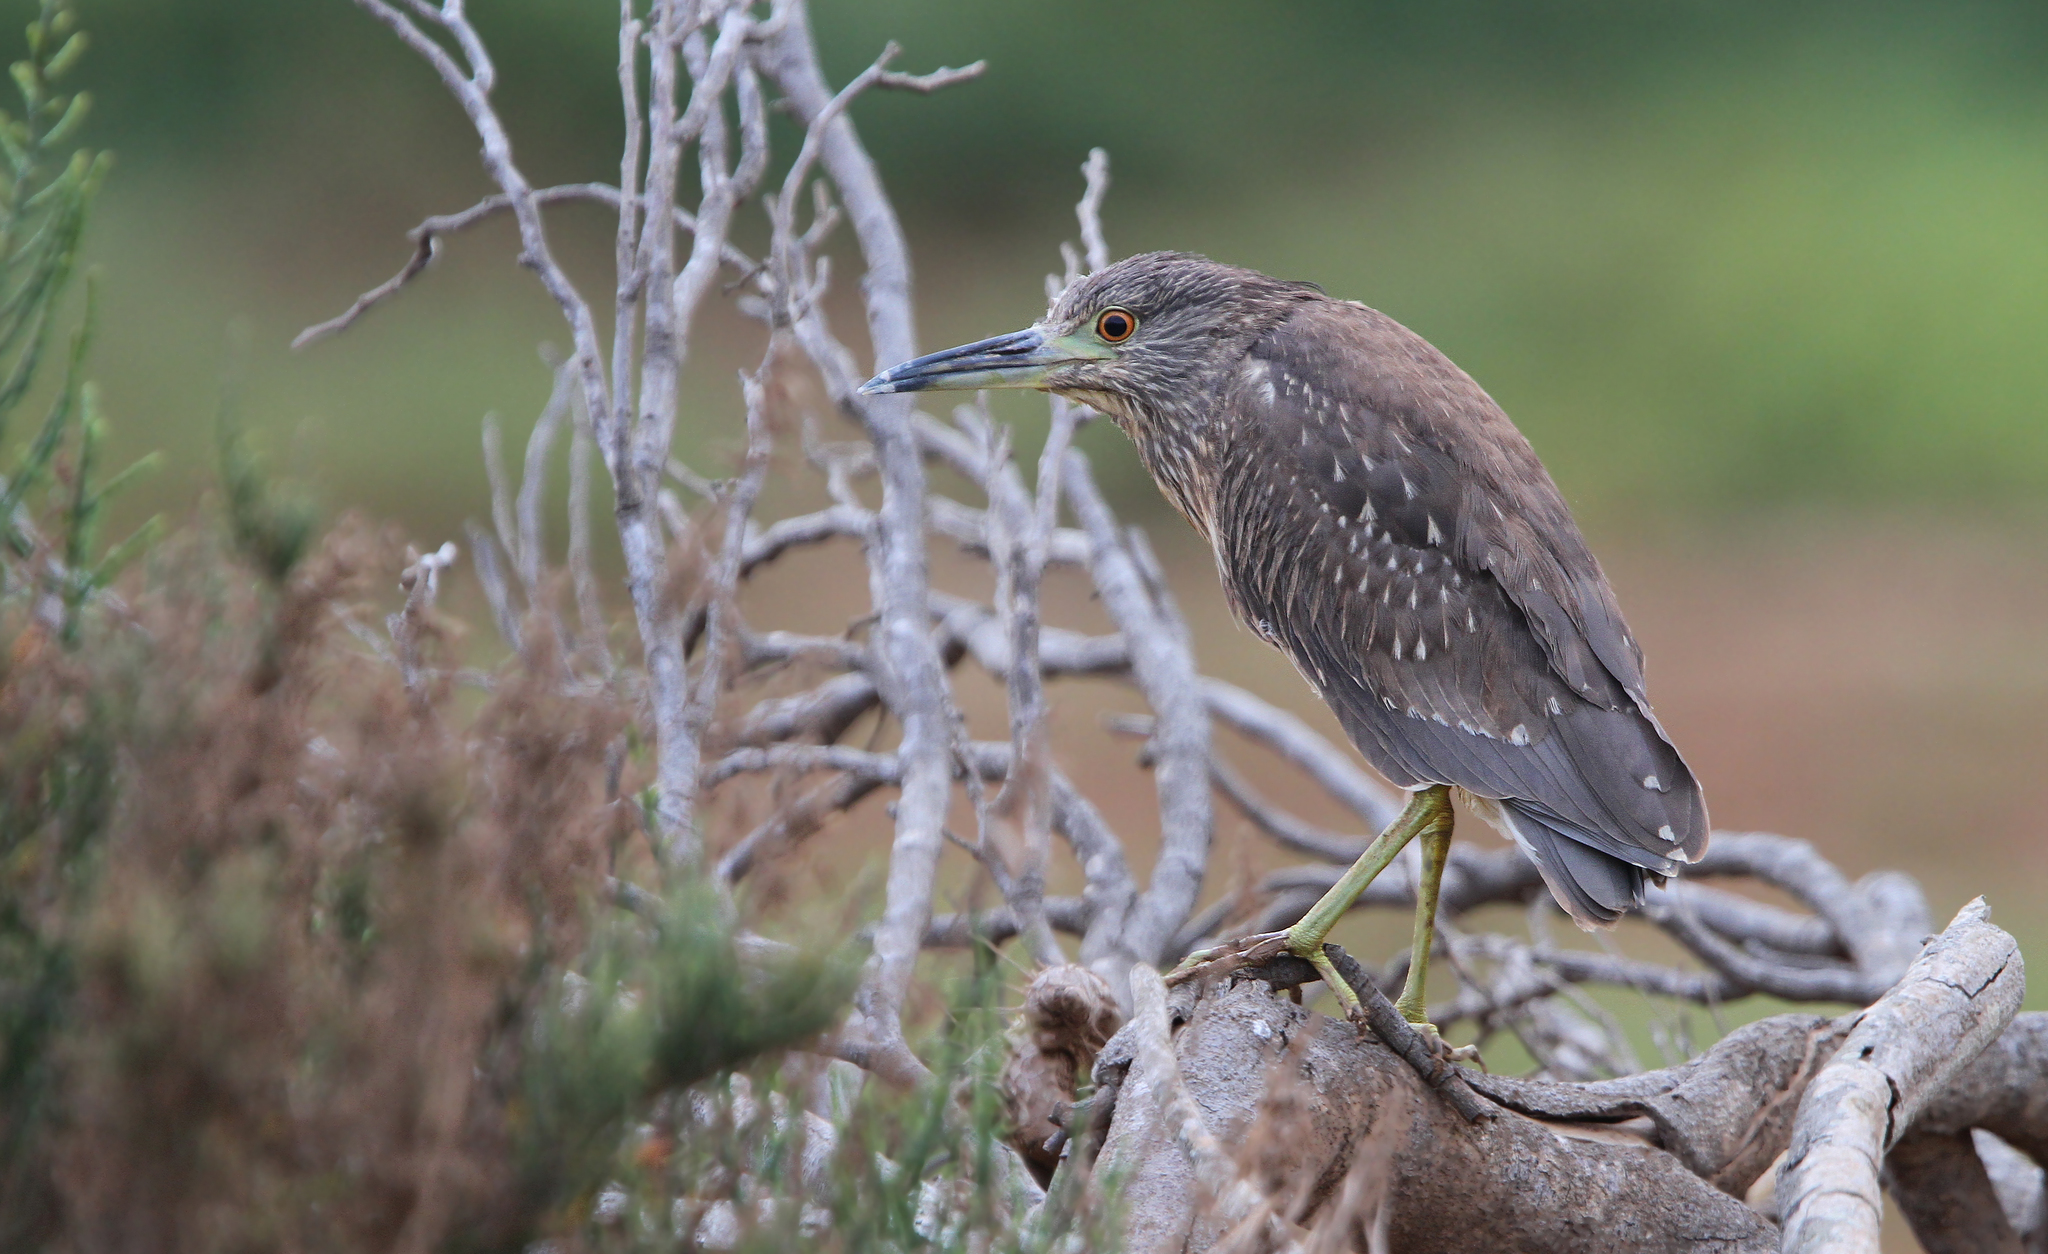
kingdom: Animalia
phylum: Chordata
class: Aves
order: Pelecaniformes
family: Ardeidae
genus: Nycticorax
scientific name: Nycticorax nycticorax
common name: Black-crowned night heron
